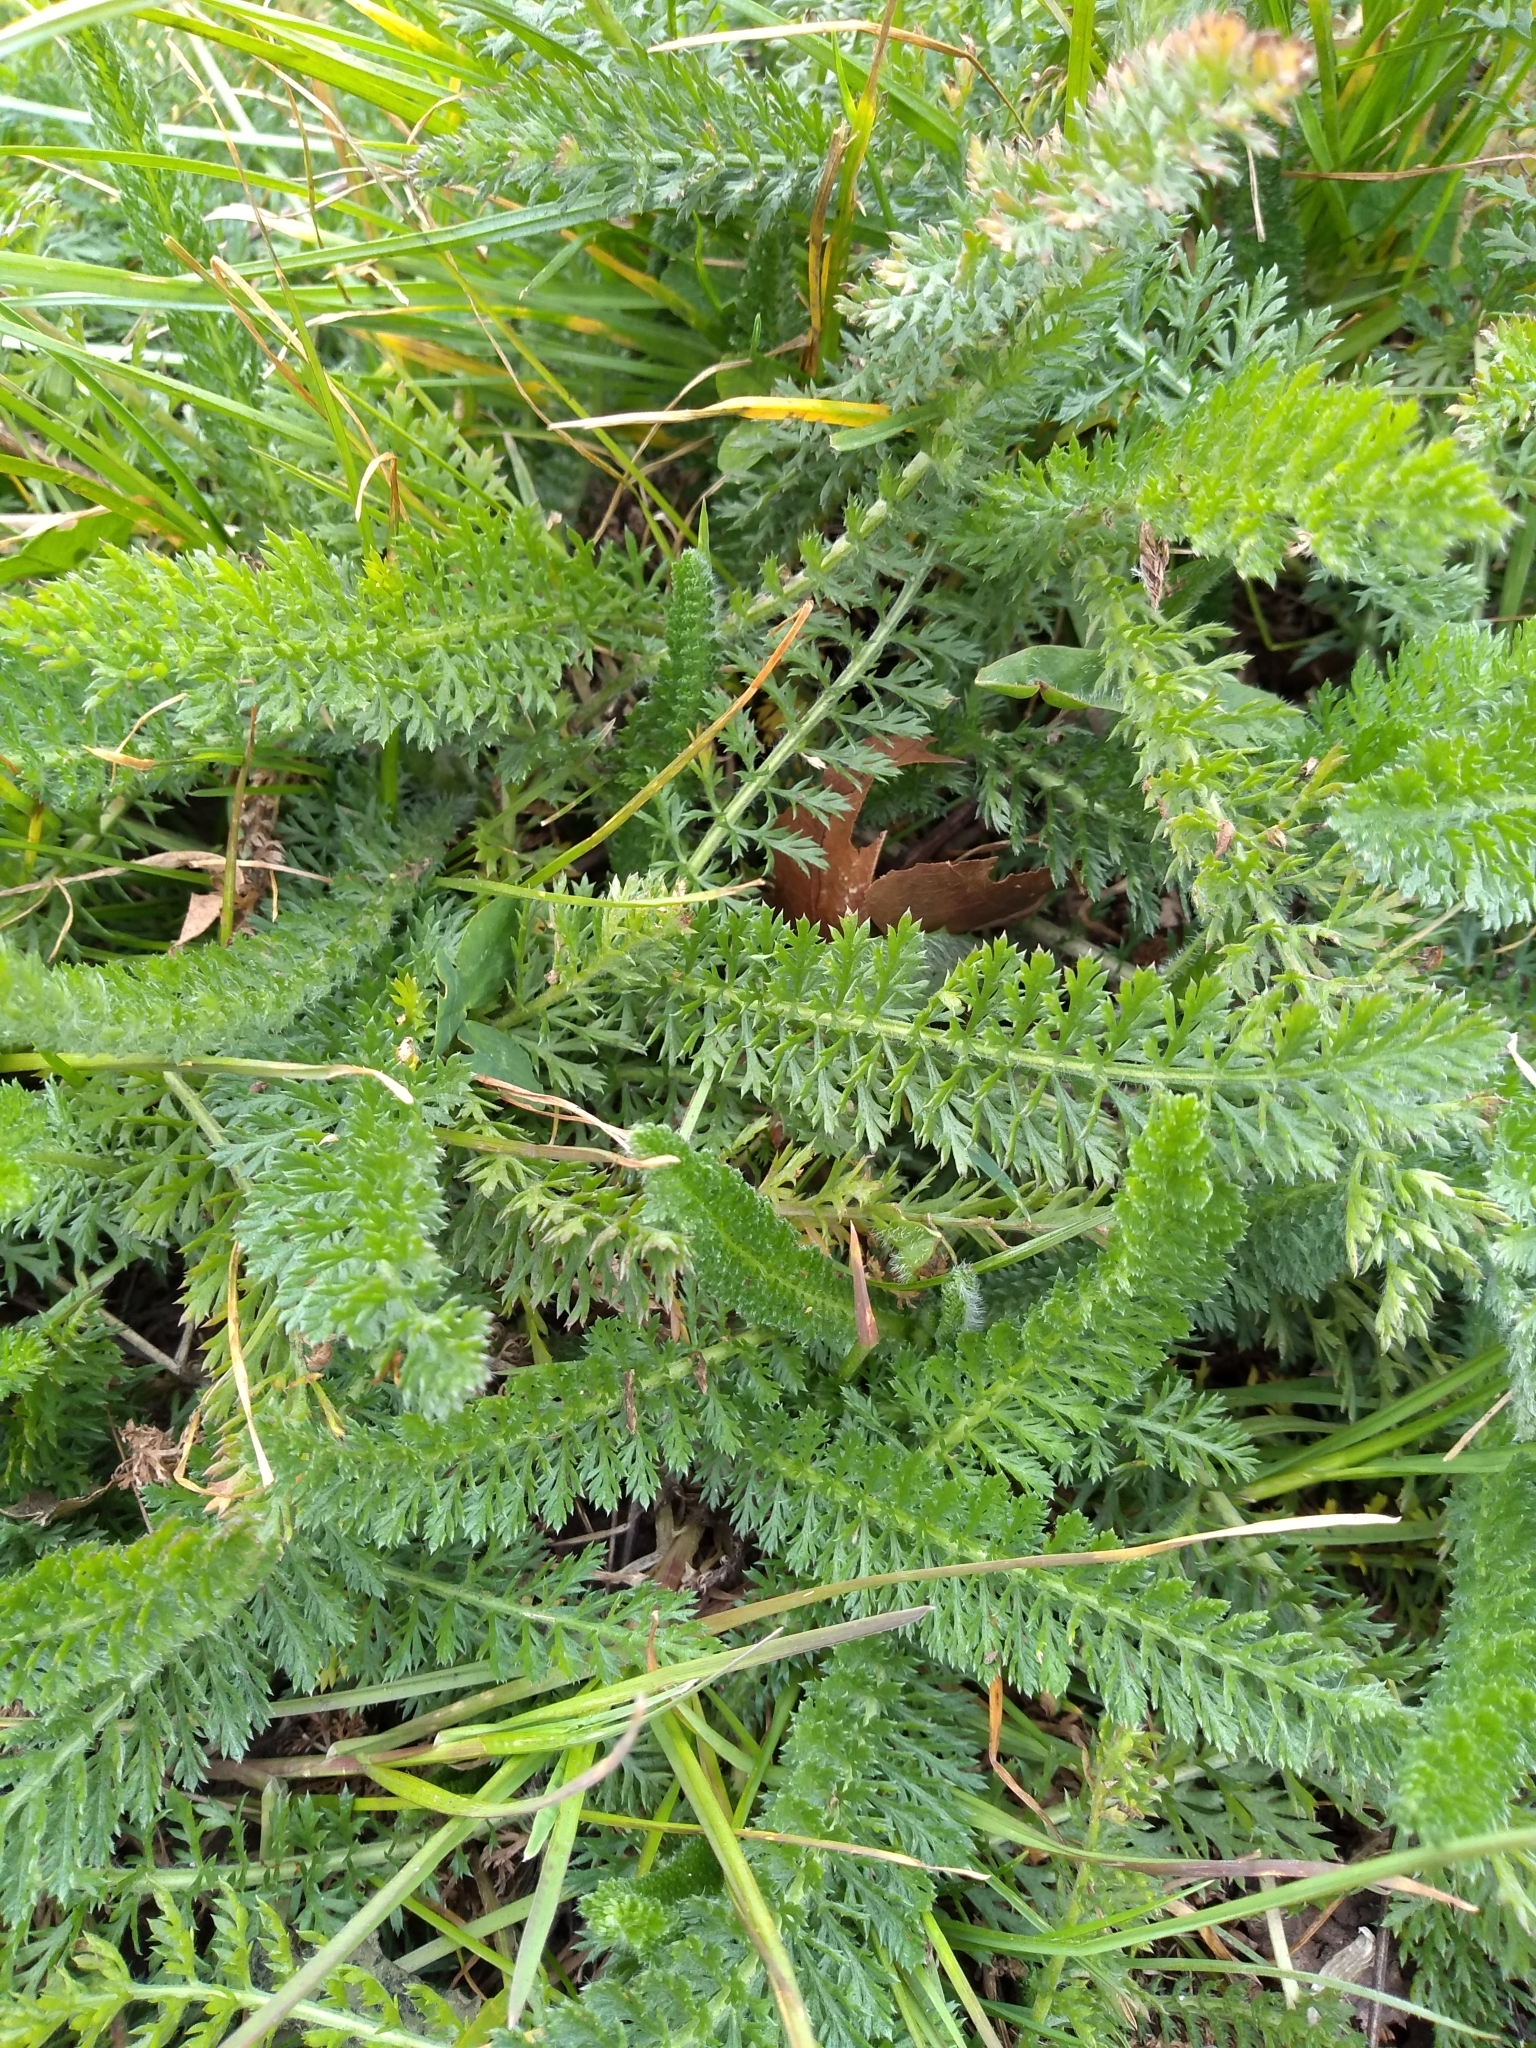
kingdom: Plantae
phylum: Tracheophyta
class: Magnoliopsida
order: Asterales
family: Asteraceae
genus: Achillea
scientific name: Achillea millefolium
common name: Yarrow
